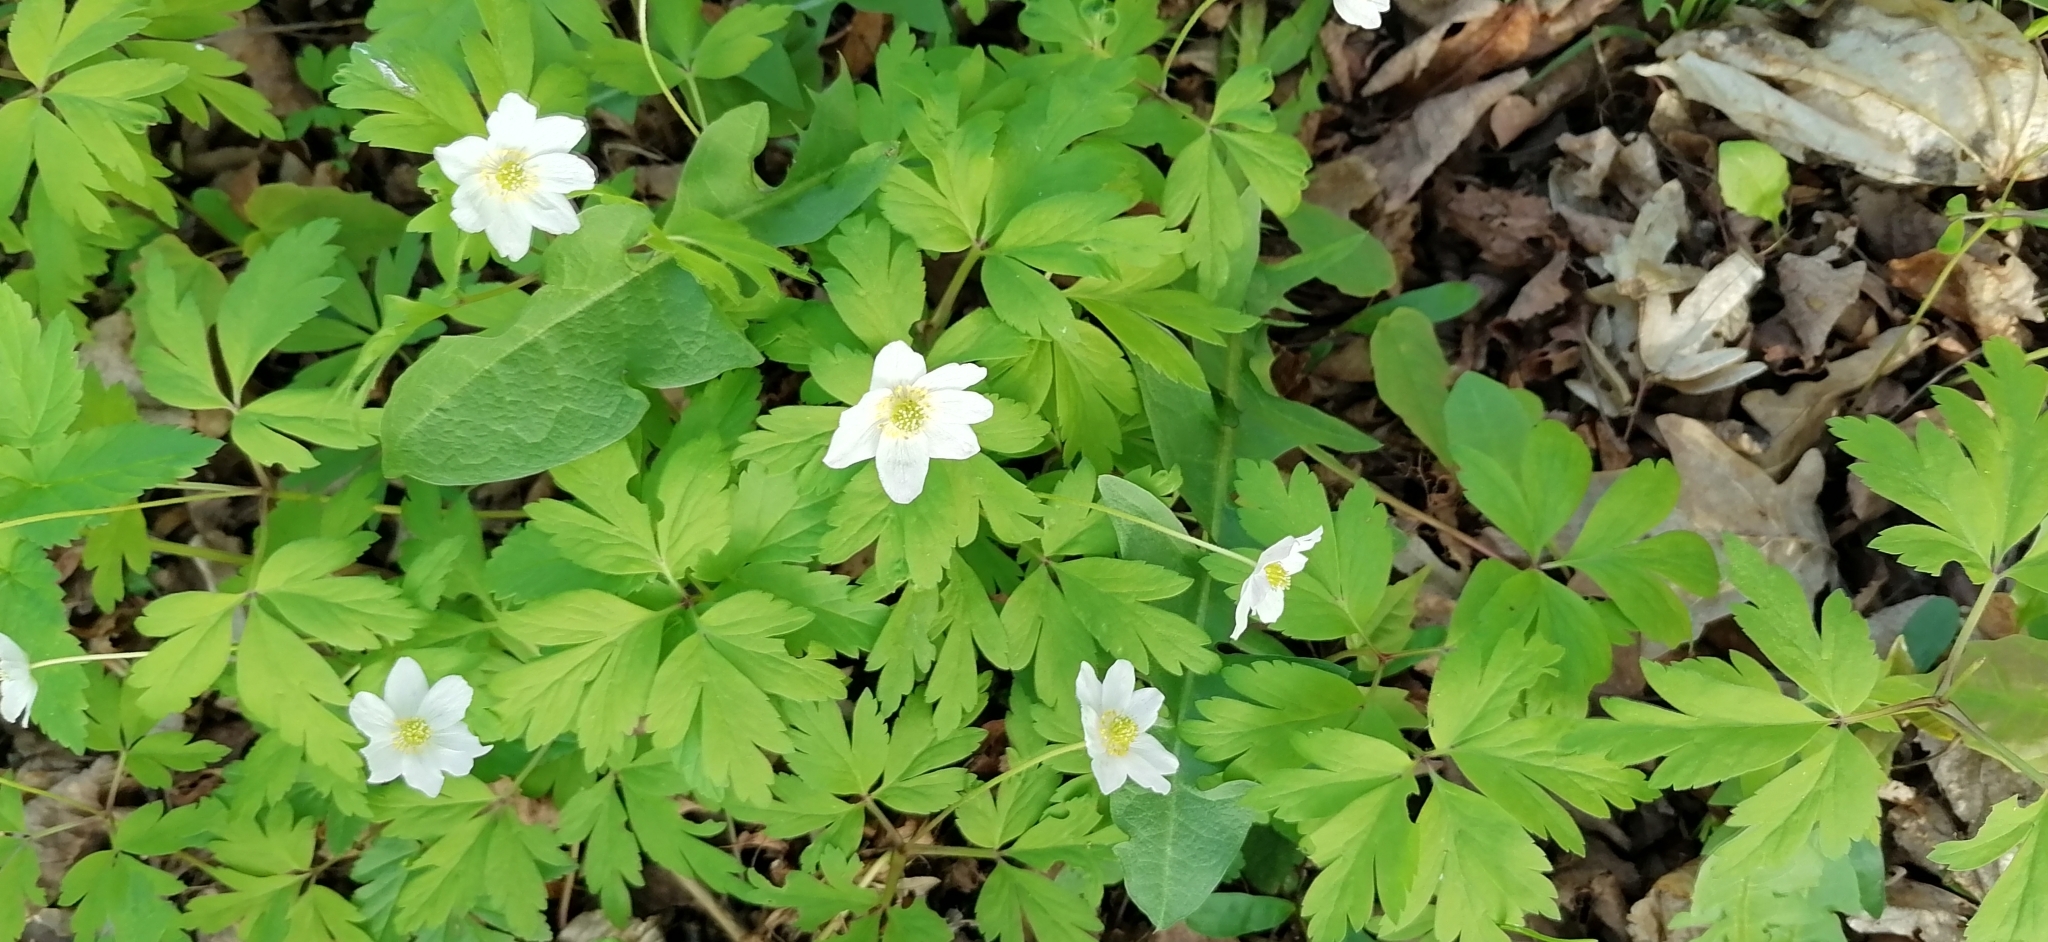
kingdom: Plantae
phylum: Tracheophyta
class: Magnoliopsida
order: Ranunculales
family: Ranunculaceae
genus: Anemone
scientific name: Anemone nemorosa
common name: Wood anemone
